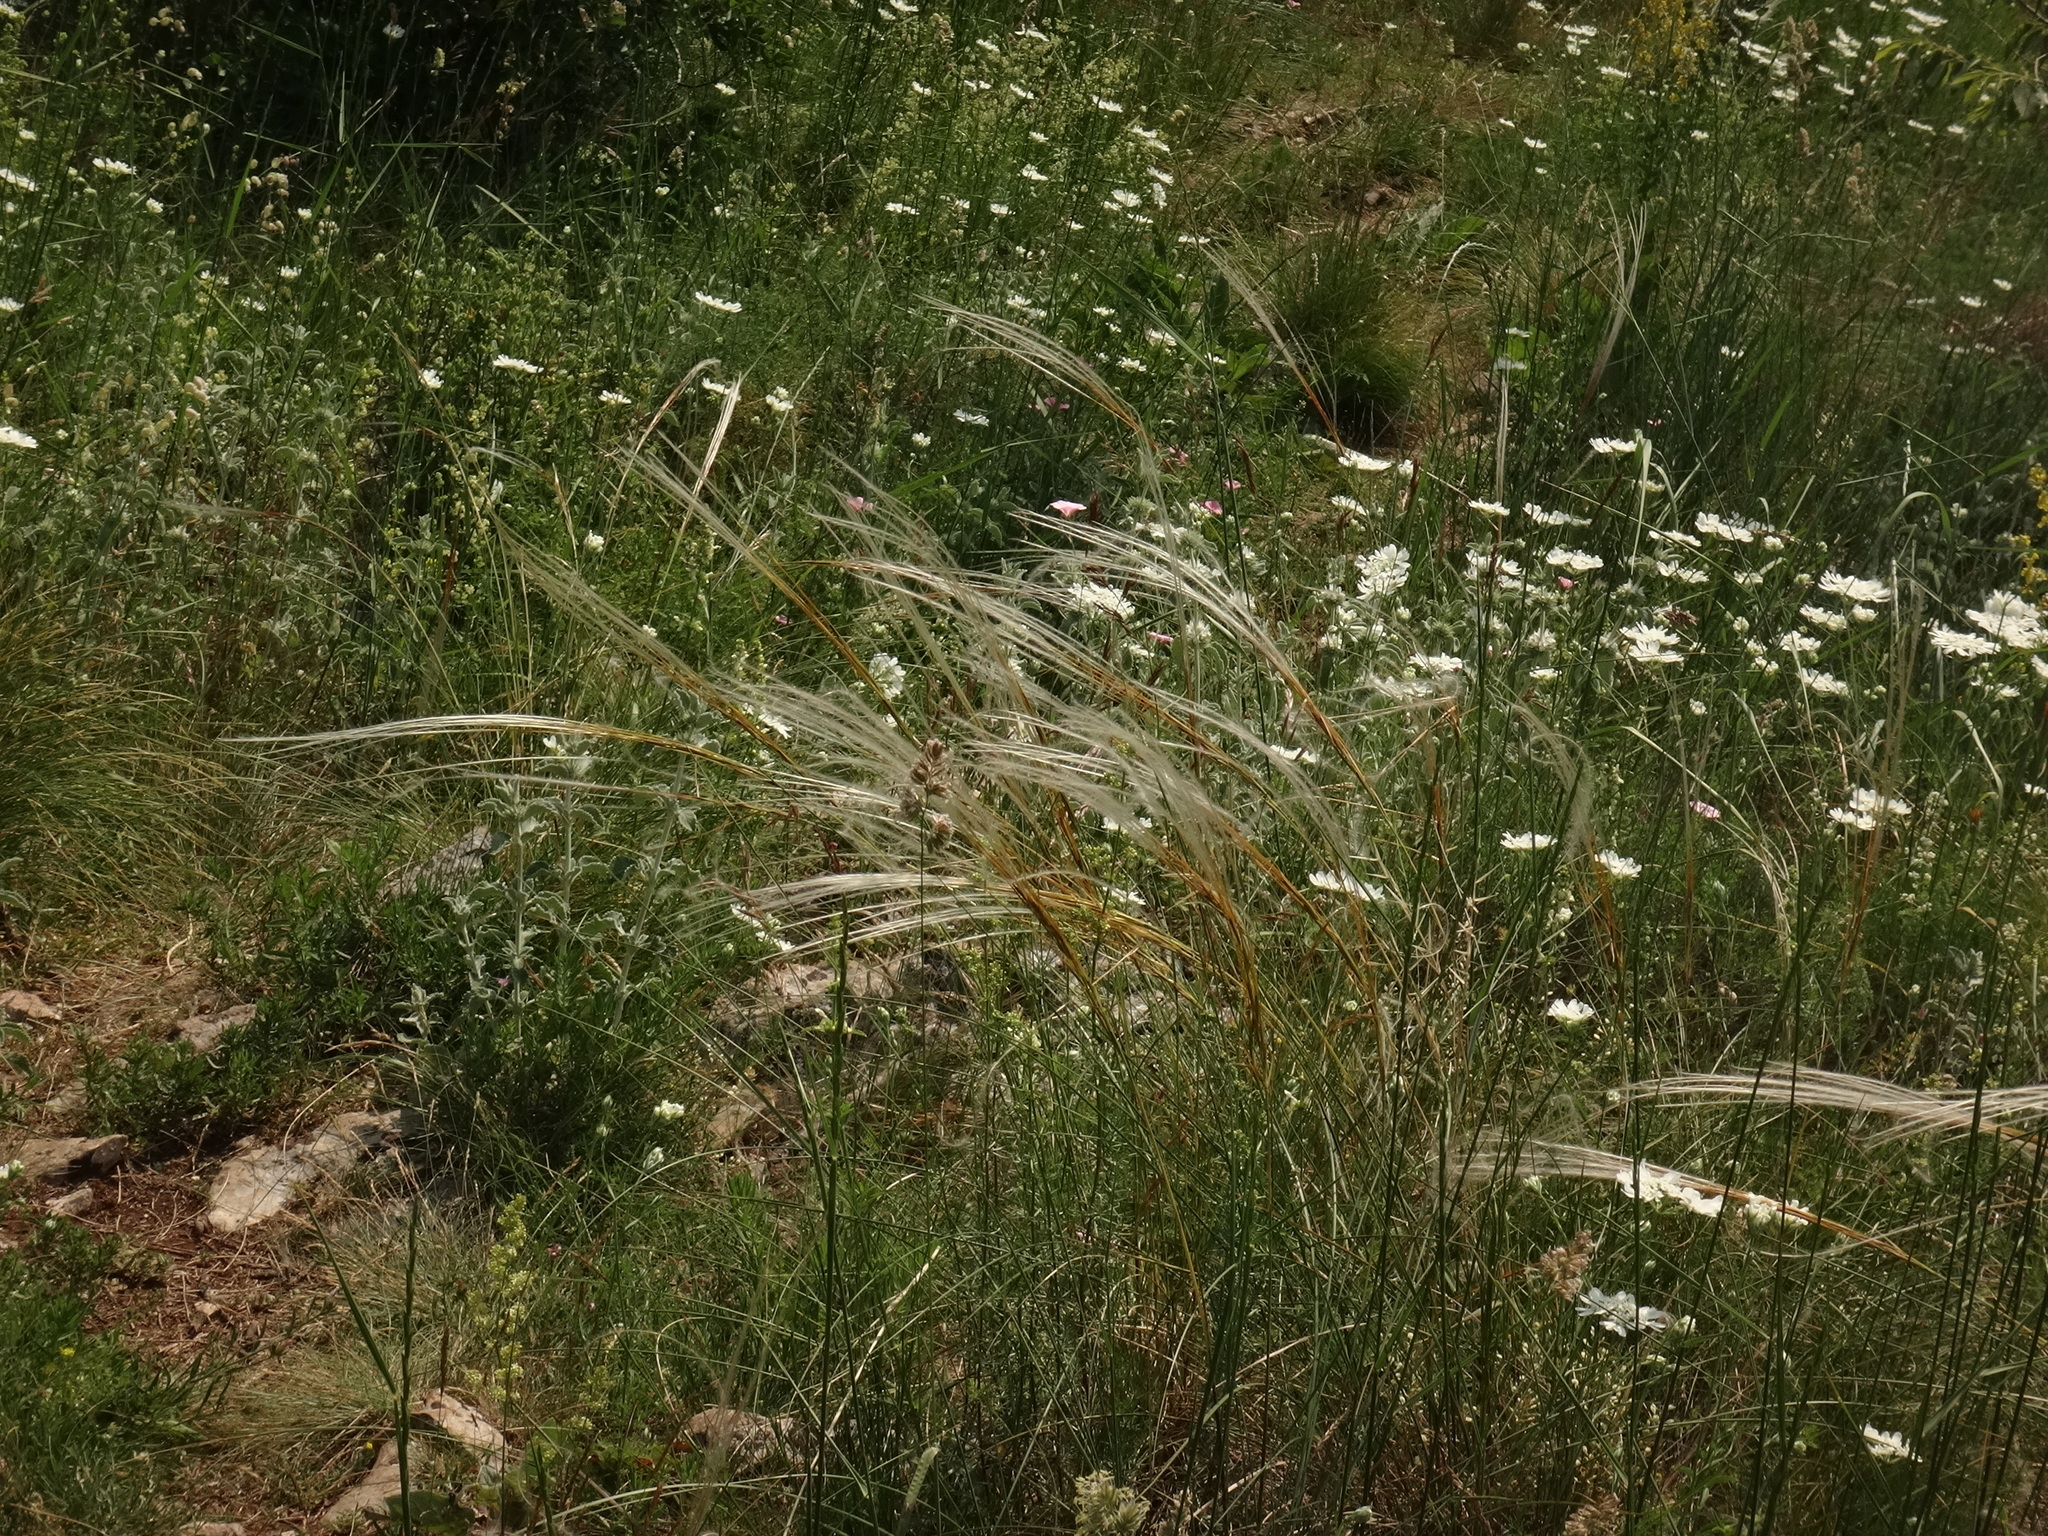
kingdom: Plantae
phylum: Tracheophyta
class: Liliopsida
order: Poales
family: Poaceae
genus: Stipa
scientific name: Stipa pennata
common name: European feather grass
